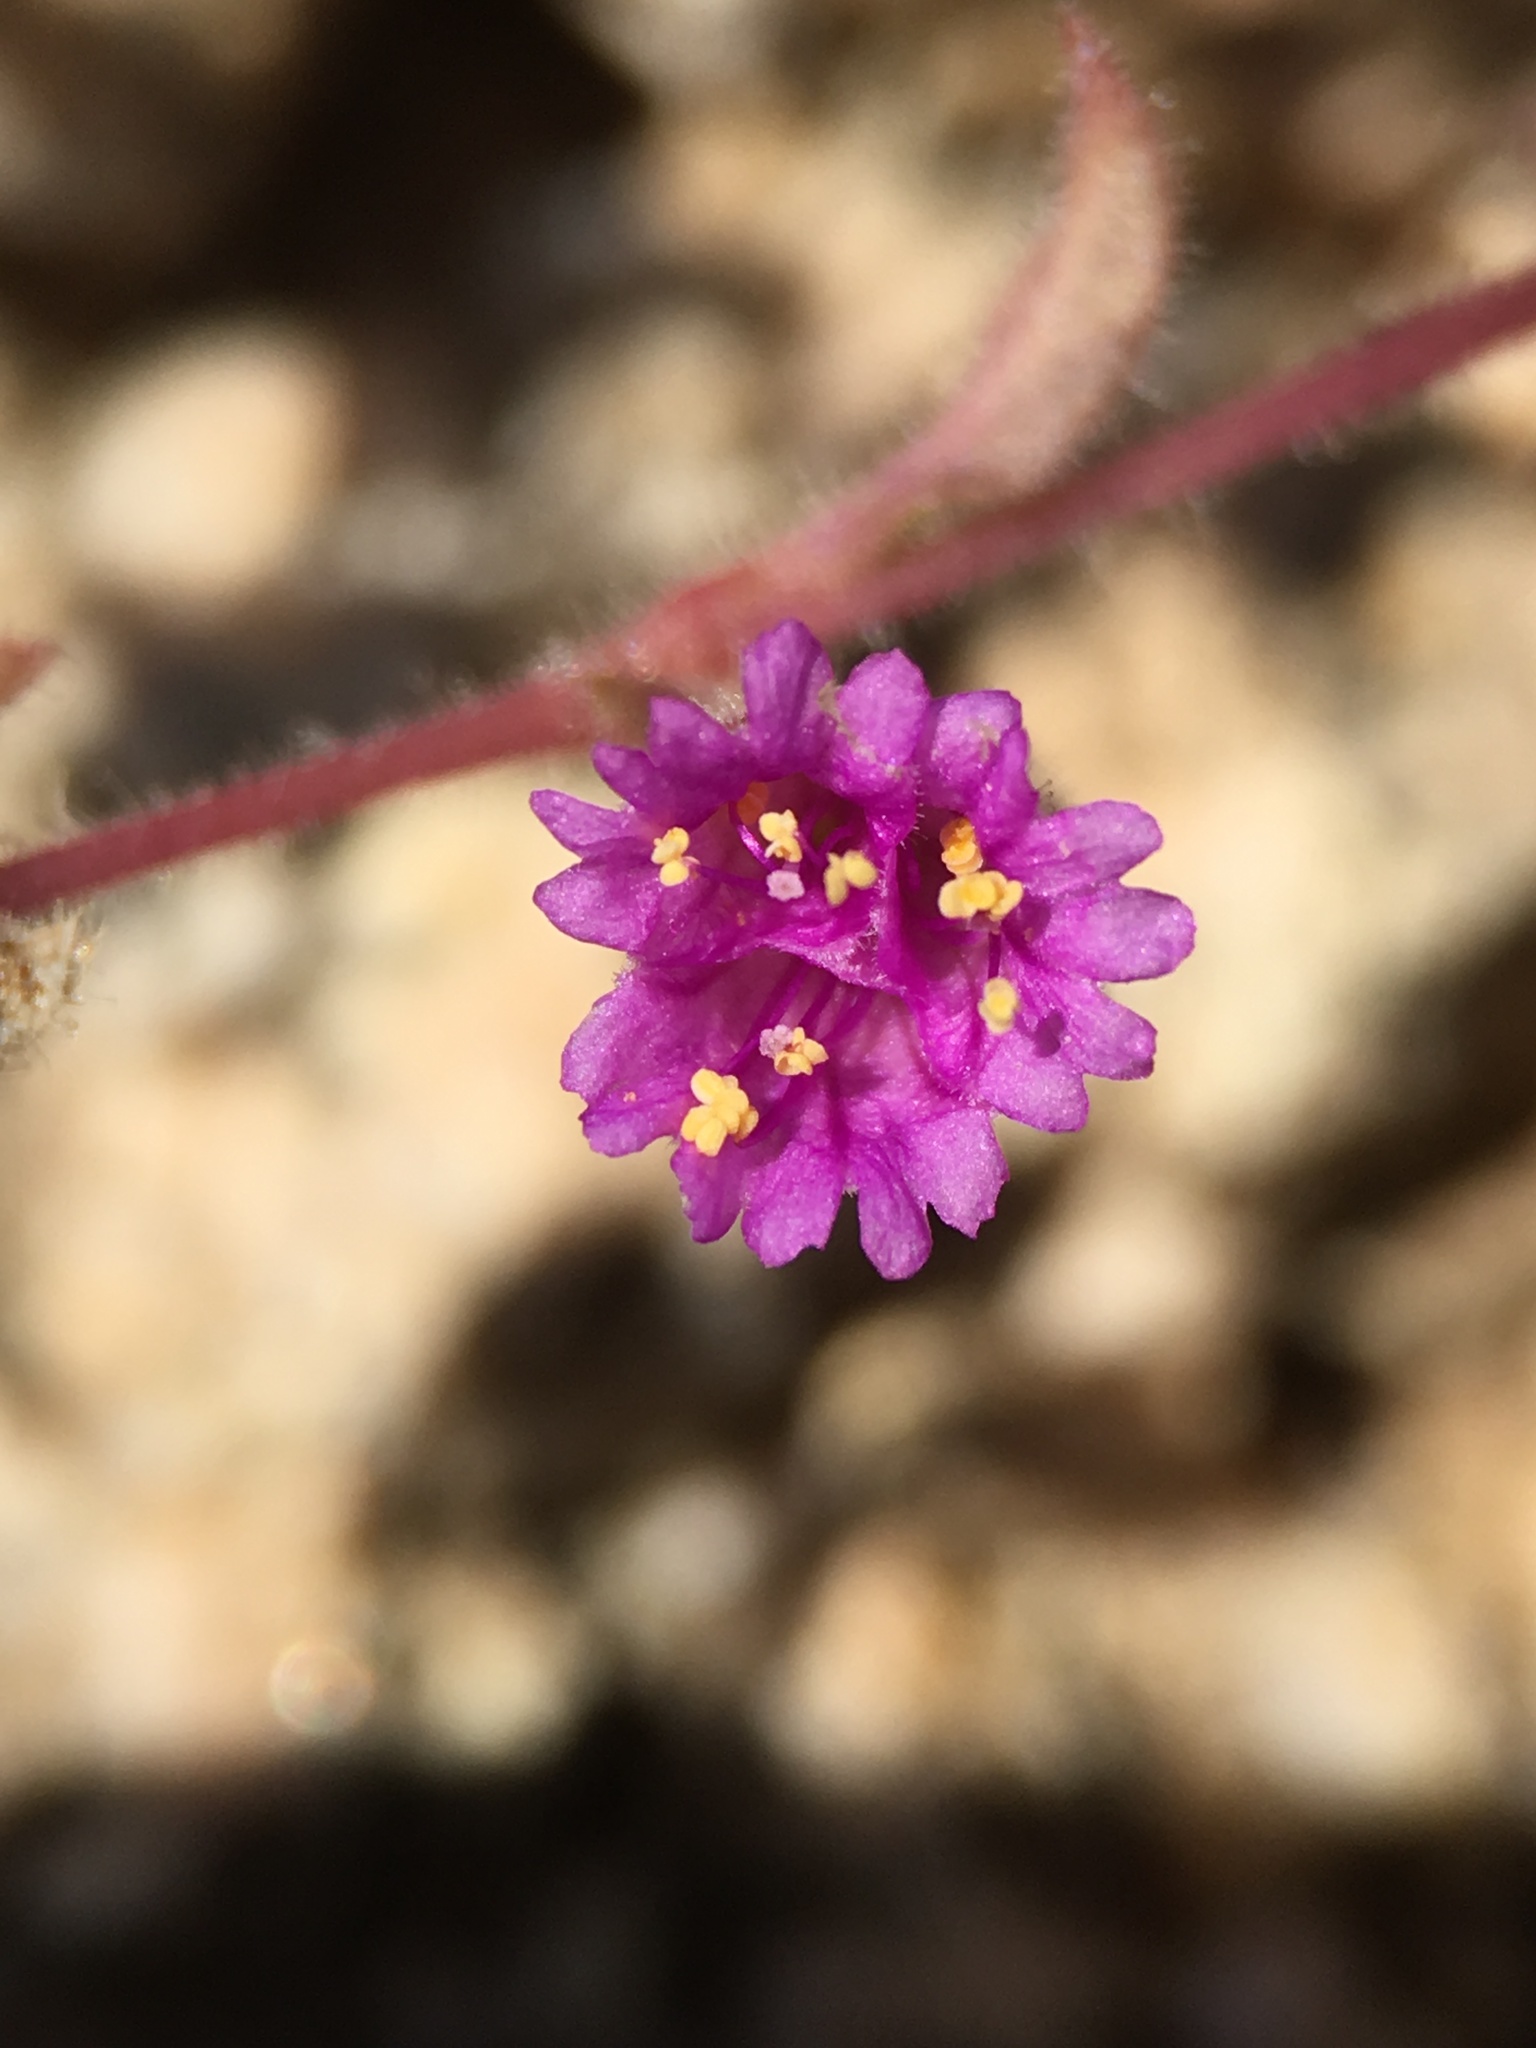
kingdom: Plantae
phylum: Tracheophyta
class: Magnoliopsida
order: Caryophyllales
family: Nyctaginaceae
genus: Allionia
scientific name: Allionia incarnata
